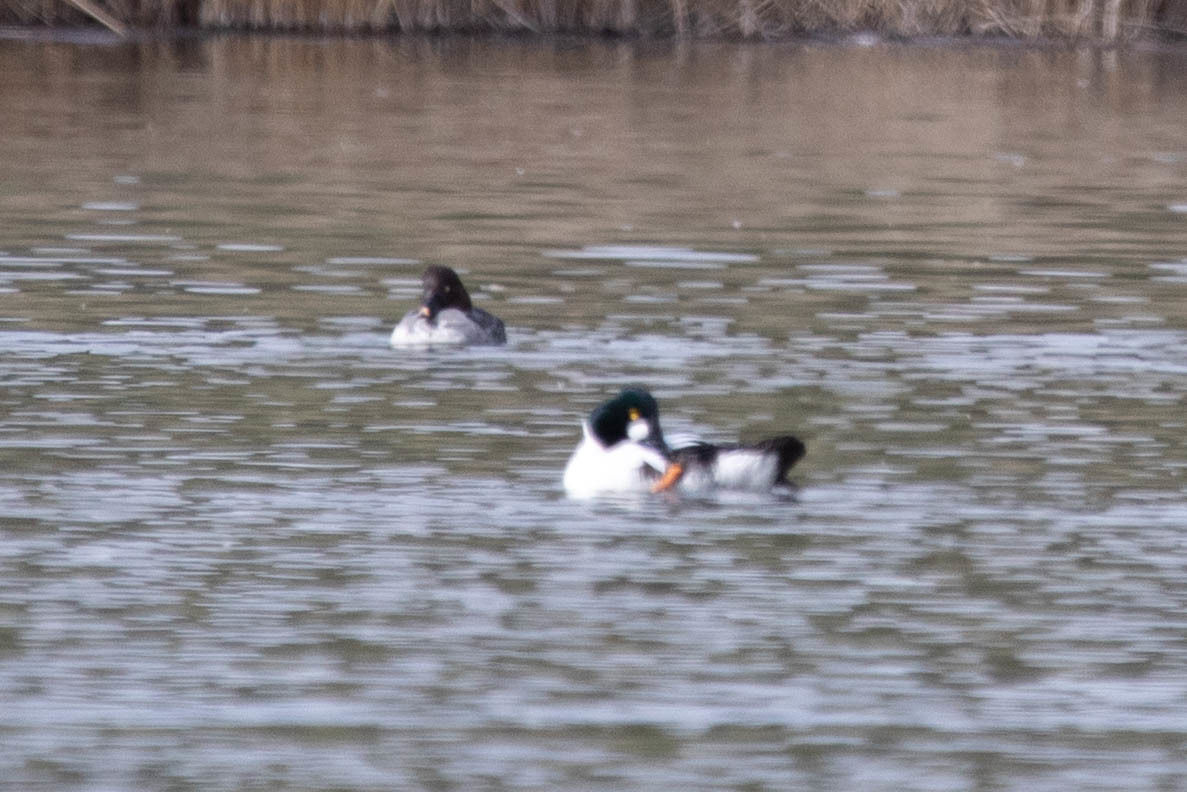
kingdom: Animalia
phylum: Chordata
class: Aves
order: Anseriformes
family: Anatidae
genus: Bucephala
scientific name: Bucephala clangula
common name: Common goldeneye
